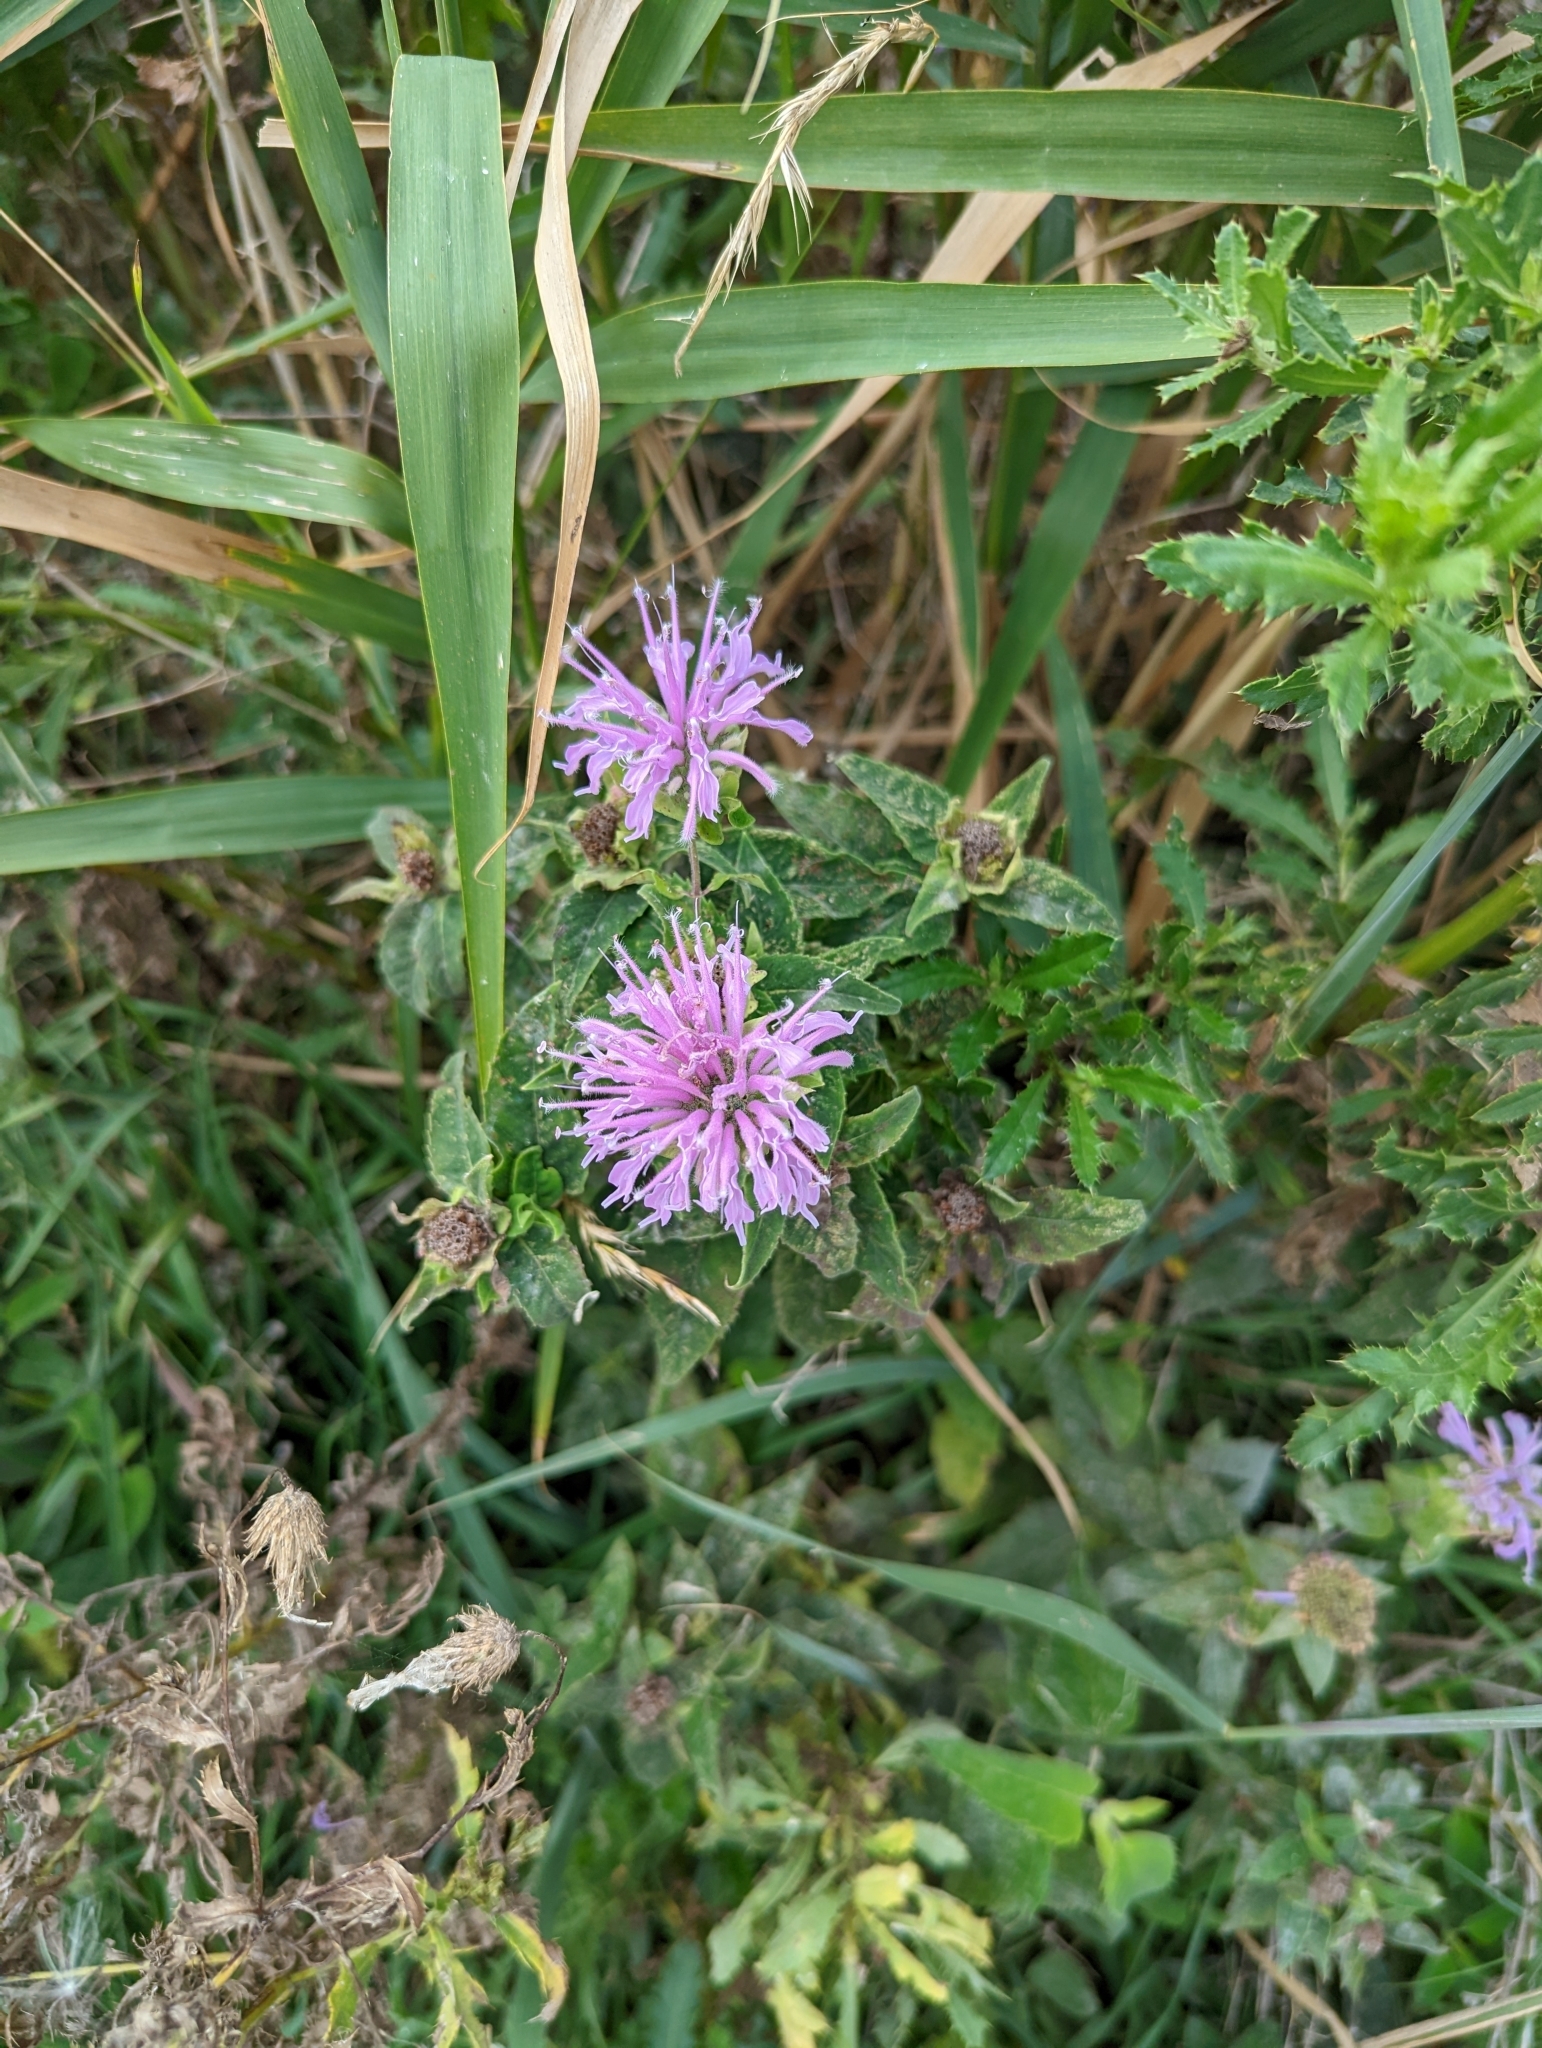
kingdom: Plantae
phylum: Tracheophyta
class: Magnoliopsida
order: Lamiales
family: Lamiaceae
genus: Monarda
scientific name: Monarda fistulosa
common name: Purple beebalm
